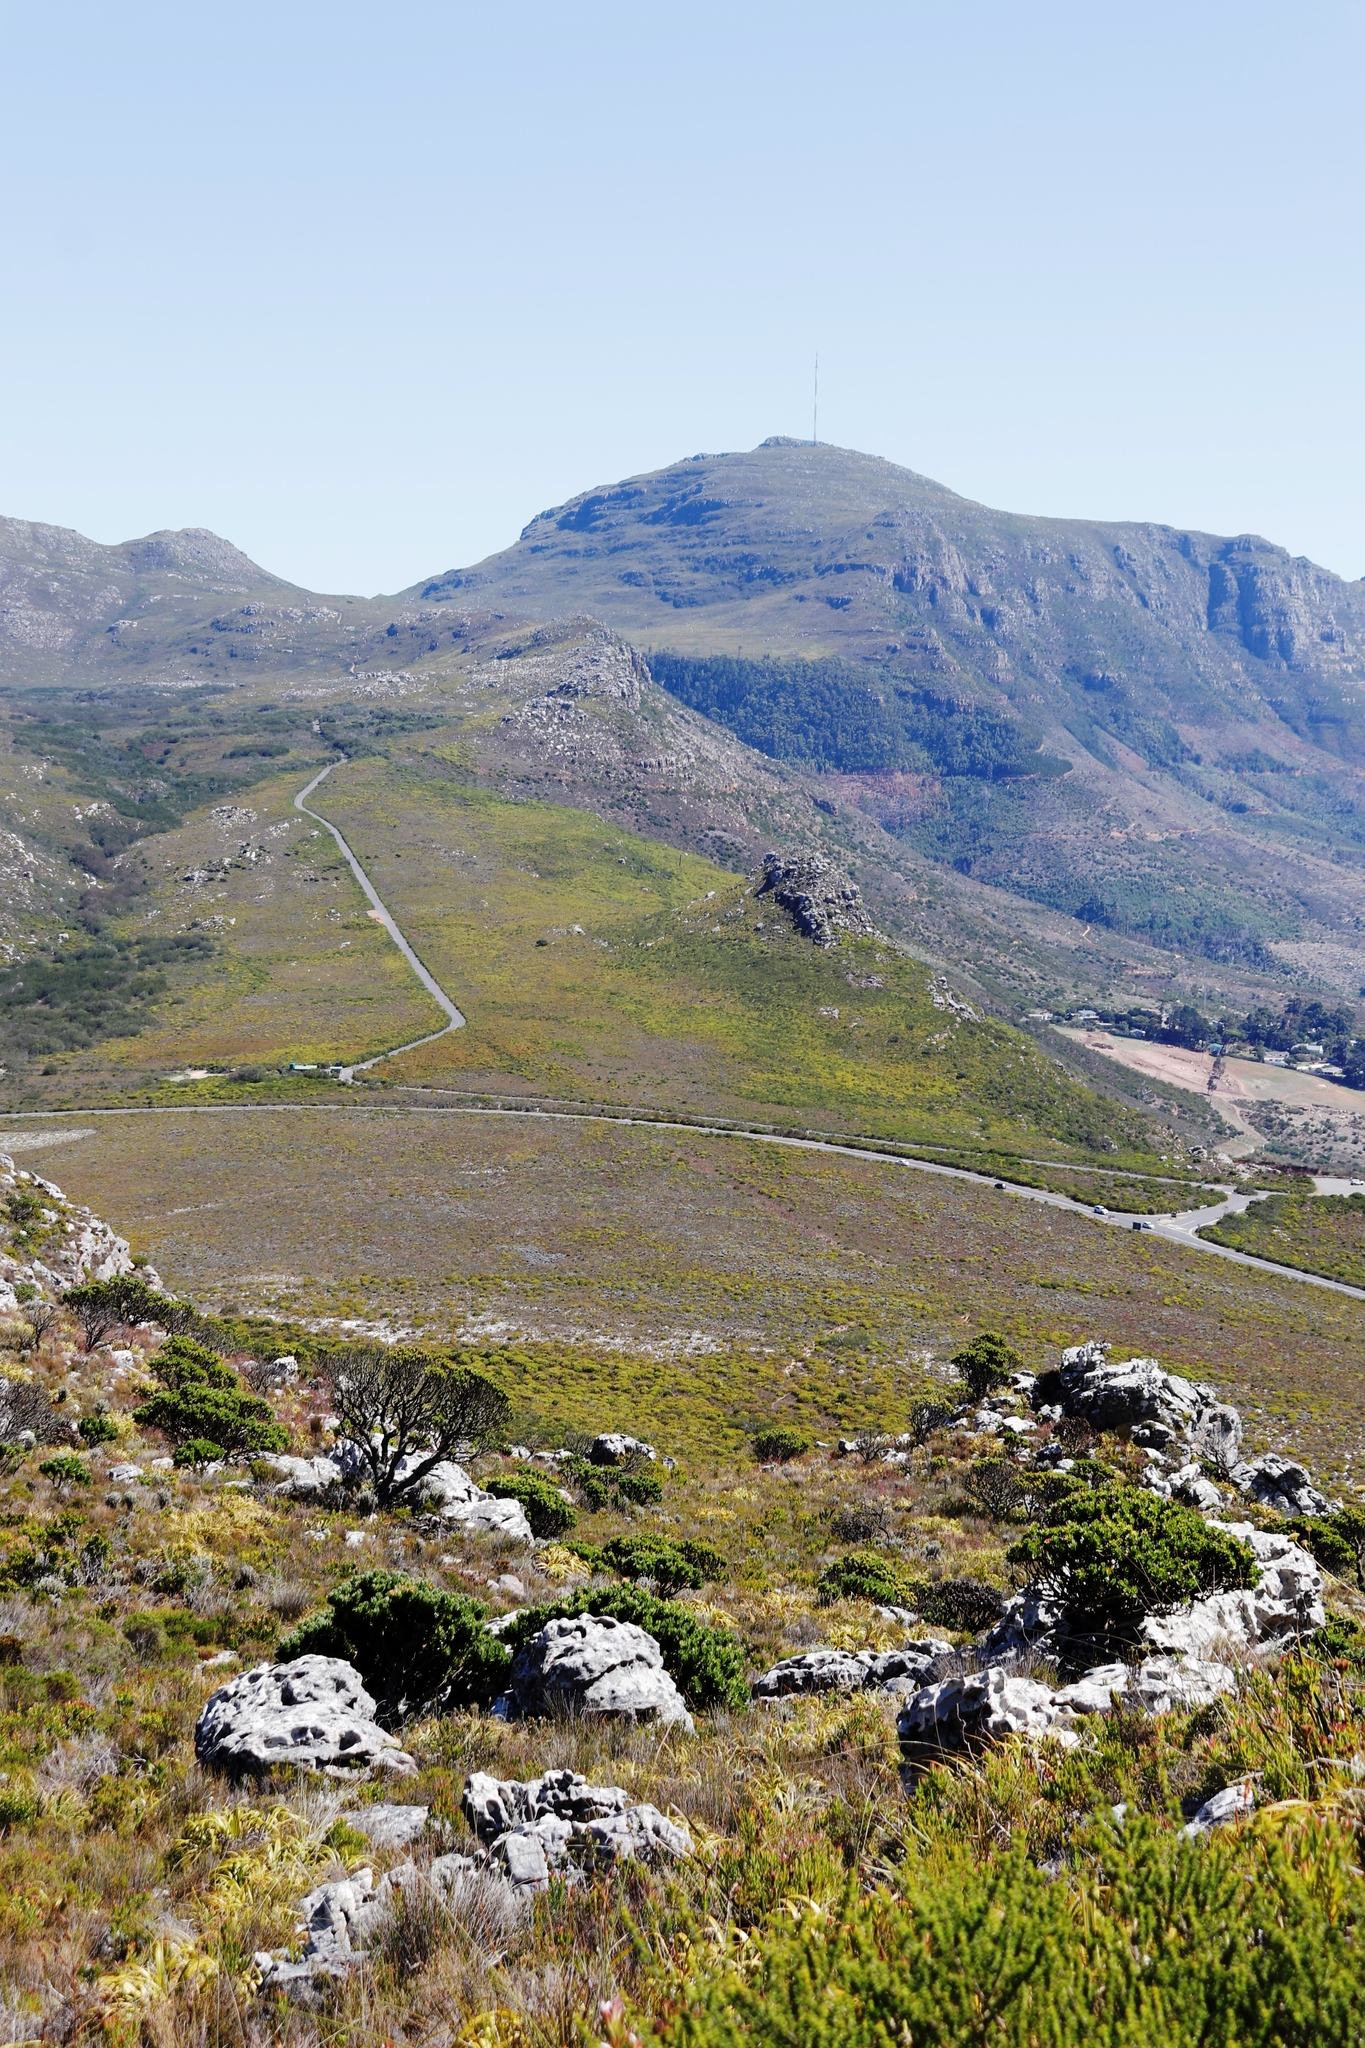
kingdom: Plantae
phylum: Tracheophyta
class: Magnoliopsida
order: Proteales
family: Proteaceae
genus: Leucadendron
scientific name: Leucadendron laureolum
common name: Golden sunshinebush
